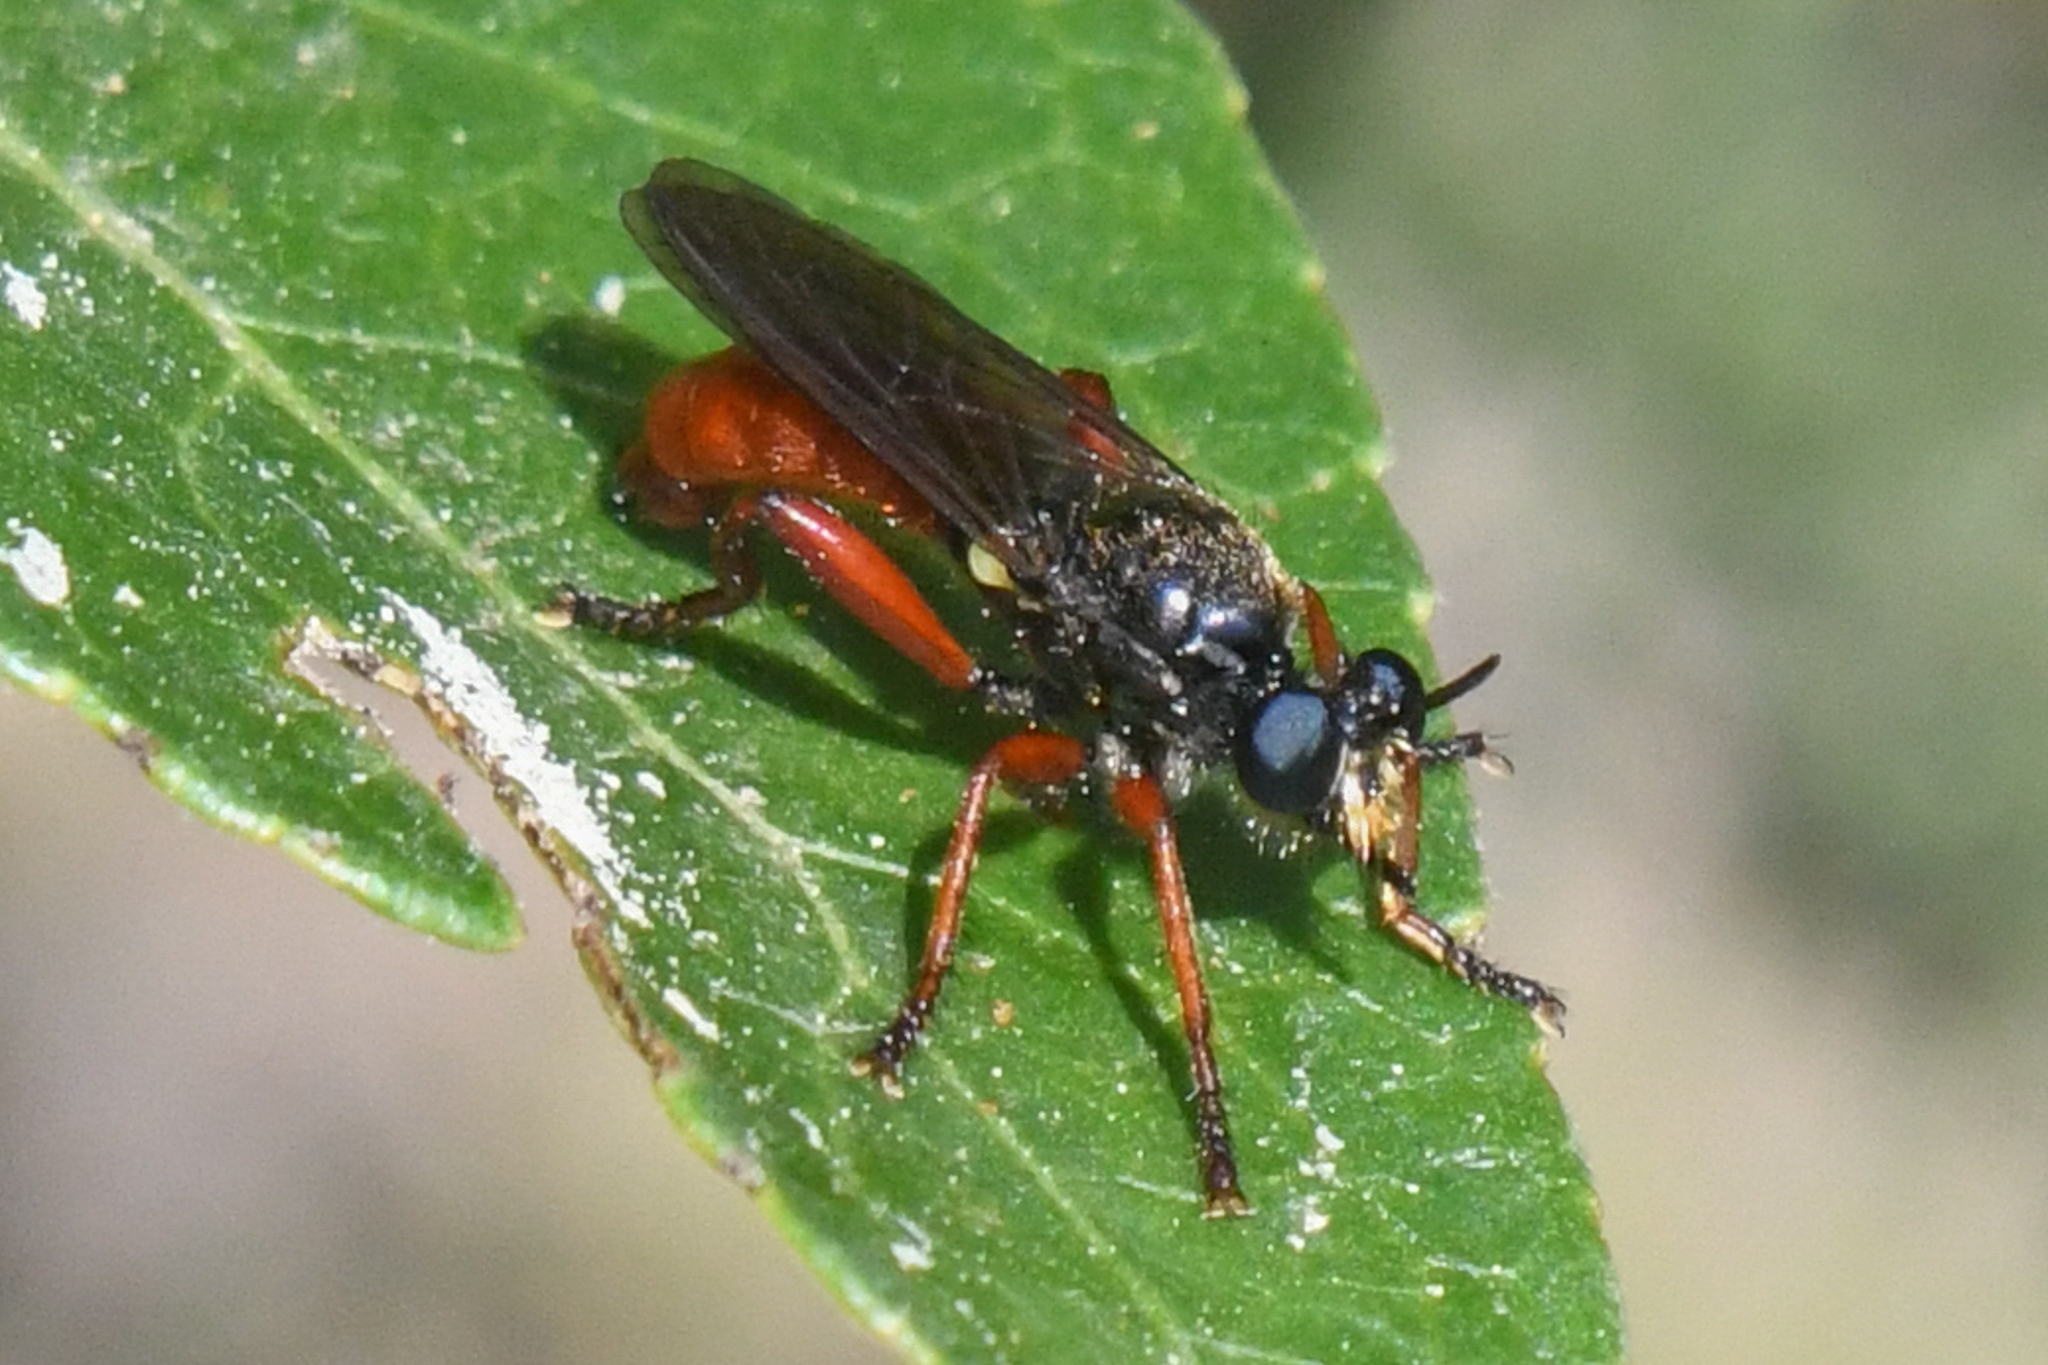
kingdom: Animalia
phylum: Arthropoda
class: Insecta
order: Diptera
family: Asilidae
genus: Laphria
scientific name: Laphria felis
